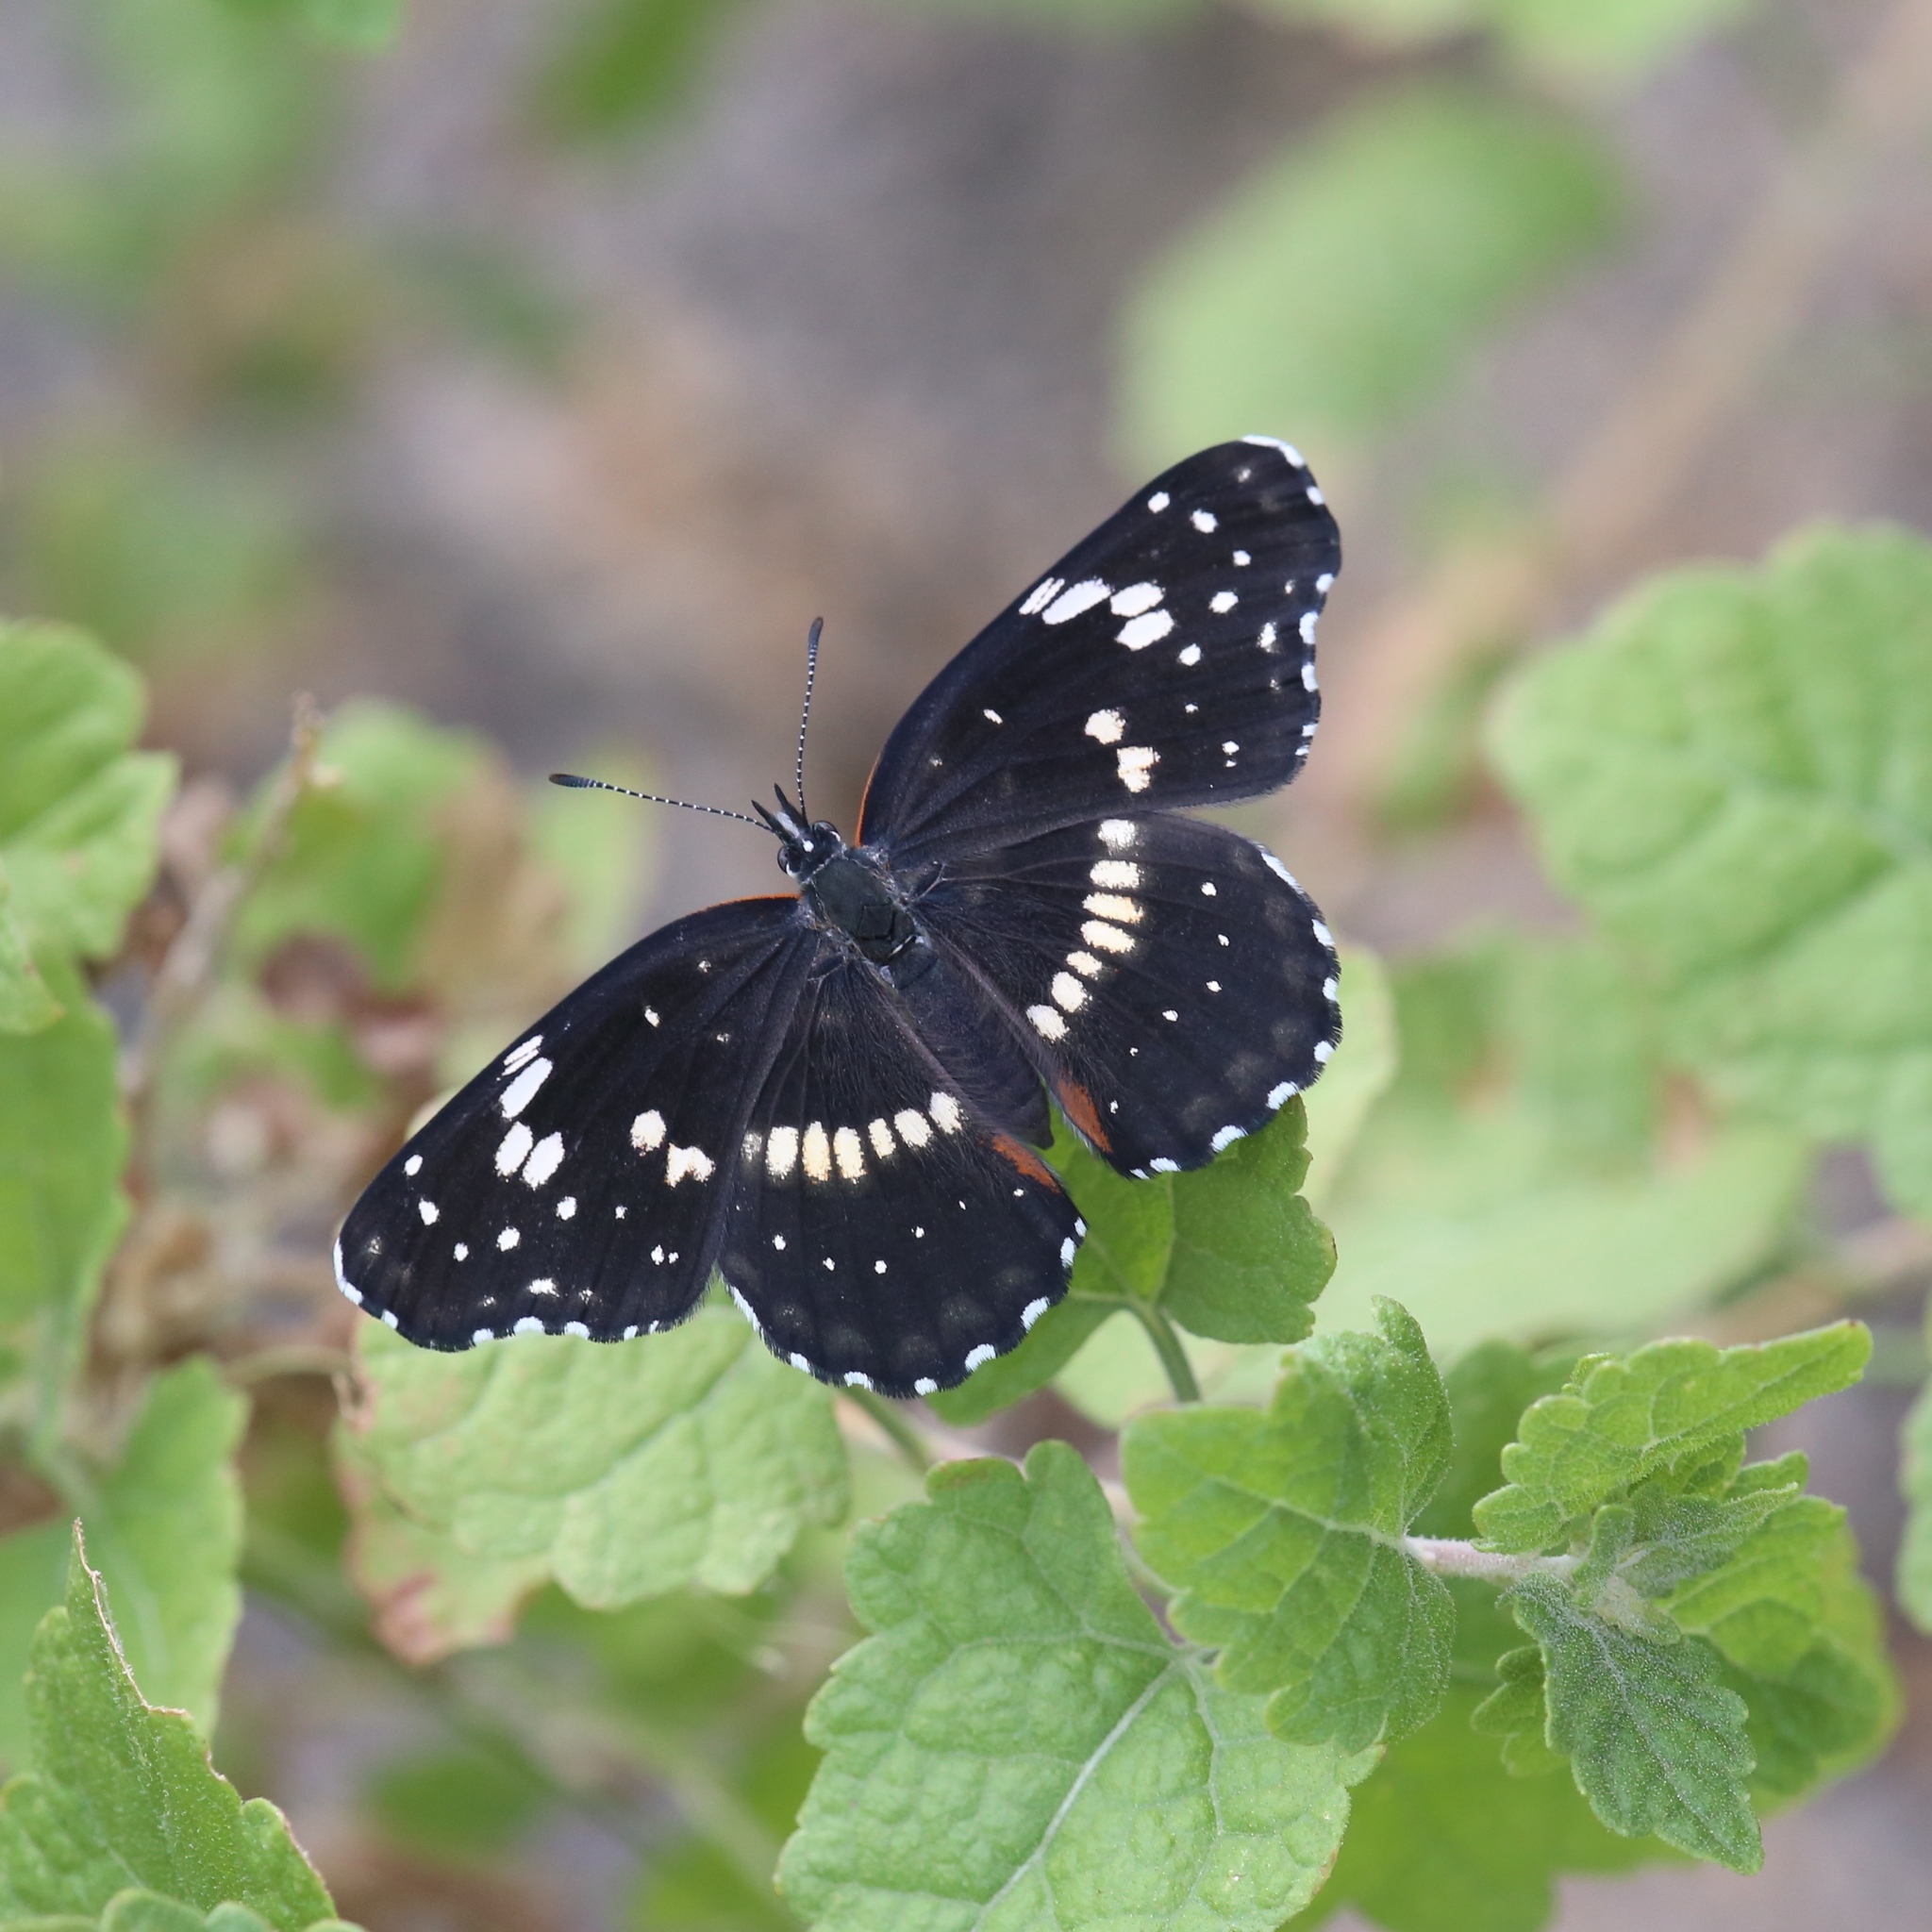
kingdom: Animalia
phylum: Arthropoda
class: Insecta
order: Lepidoptera
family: Nymphalidae
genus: Chlosyne
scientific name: Chlosyne lacinia
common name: Bordered patch
